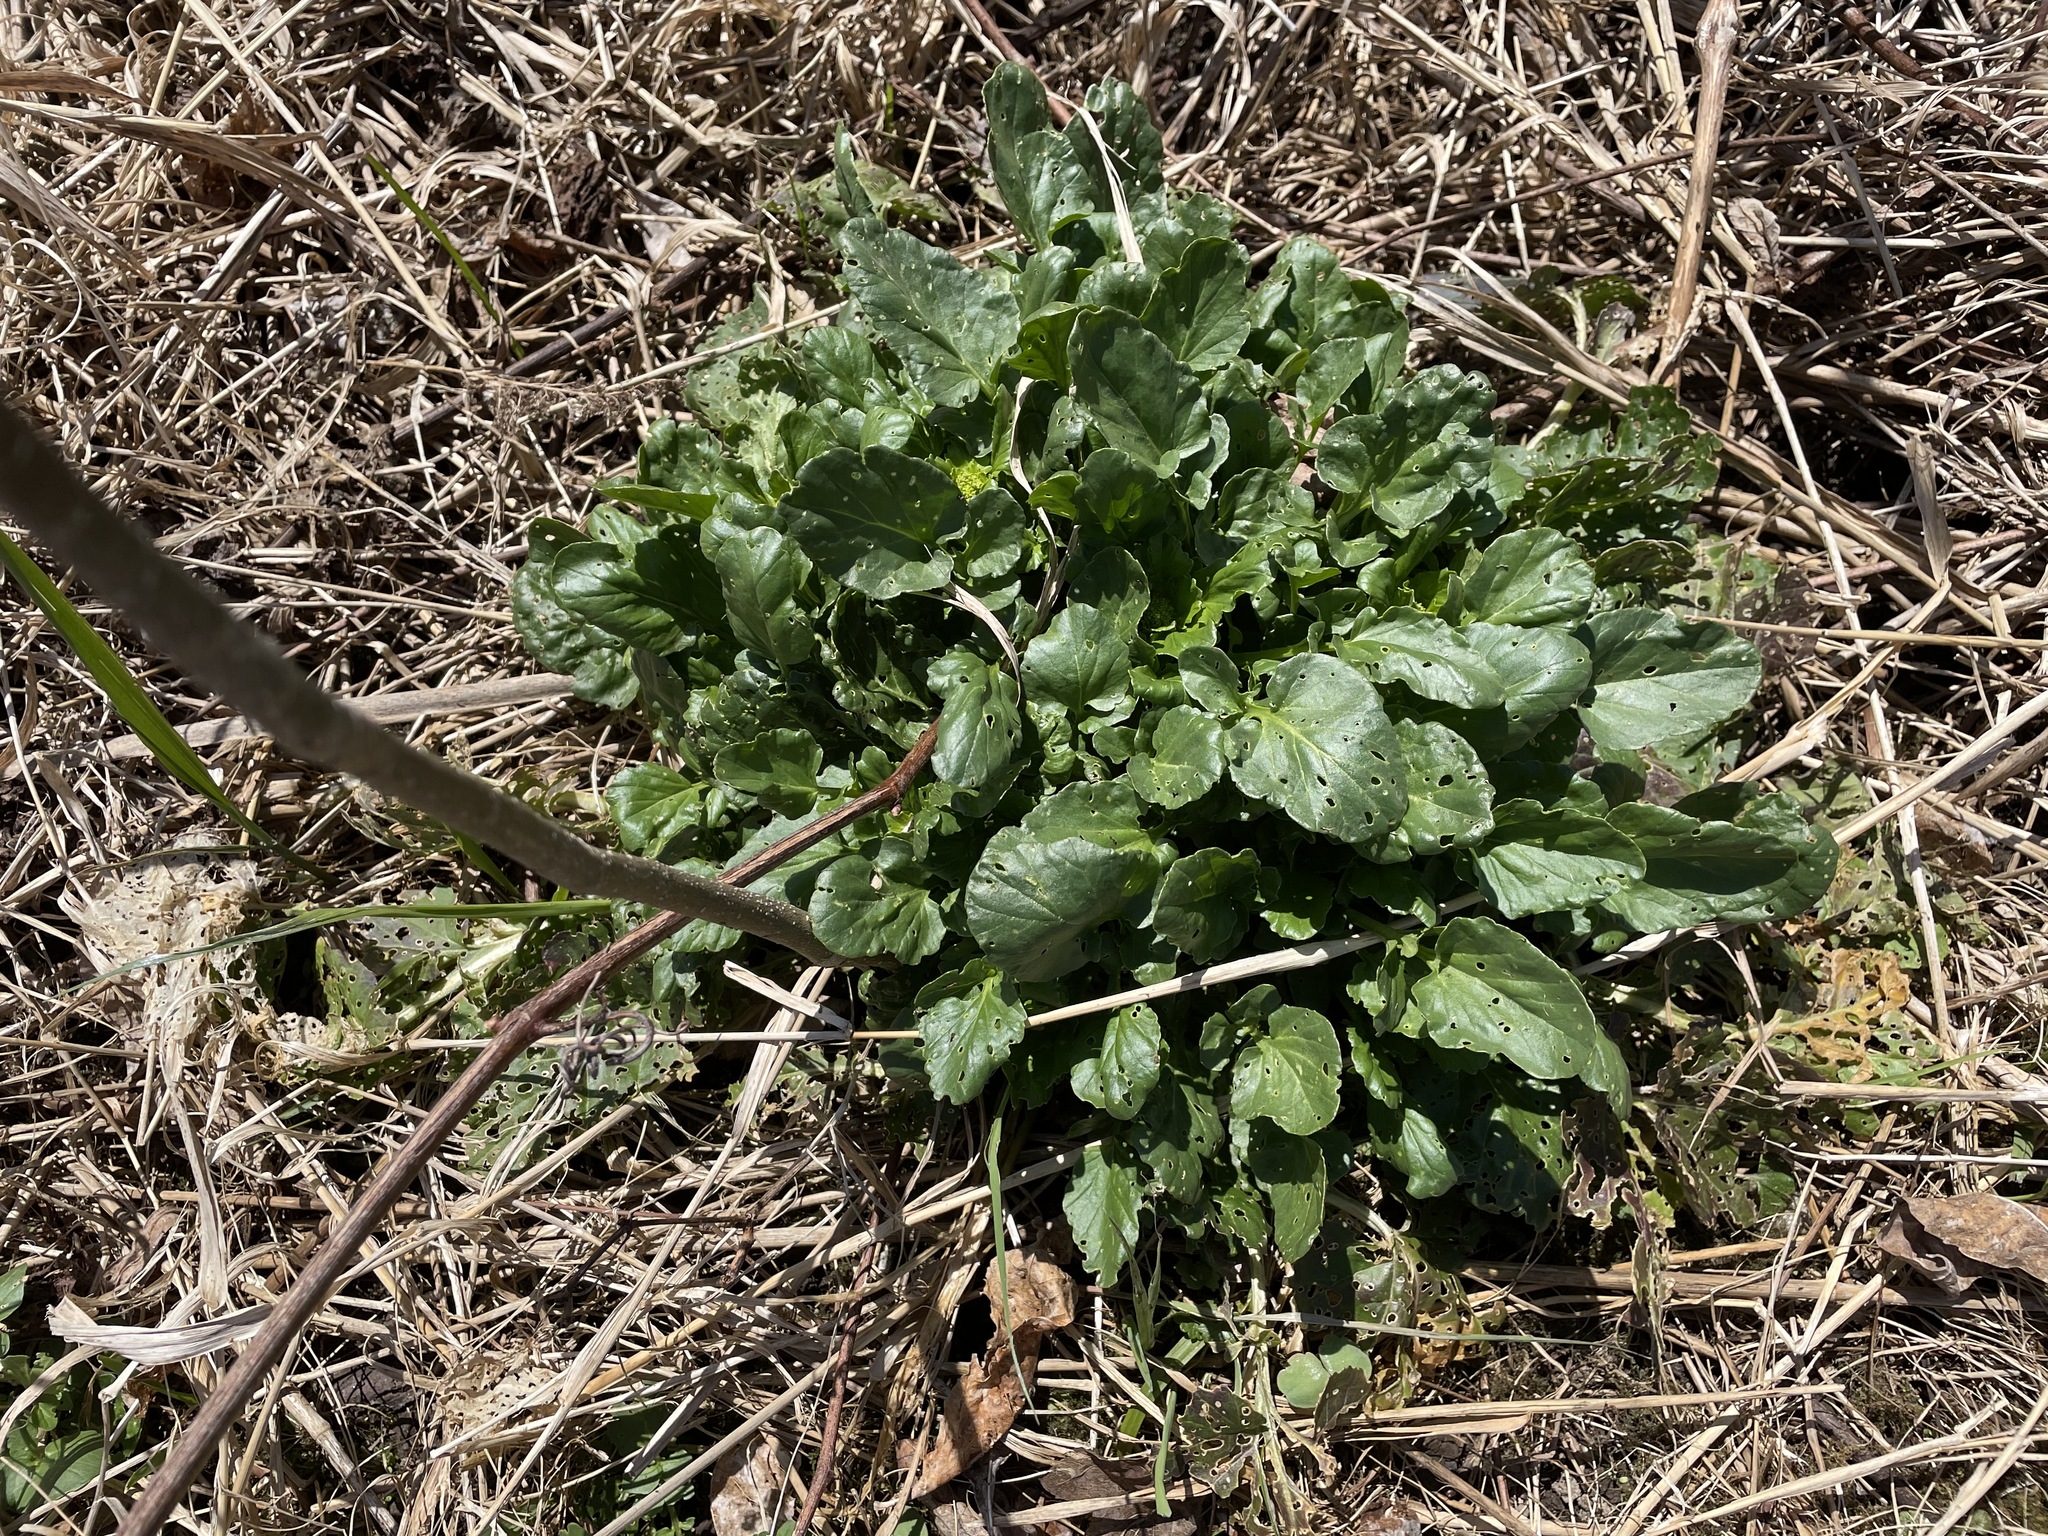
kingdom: Plantae
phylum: Tracheophyta
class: Magnoliopsida
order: Brassicales
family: Brassicaceae
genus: Barbarea
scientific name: Barbarea vulgaris
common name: Cressy-greens
